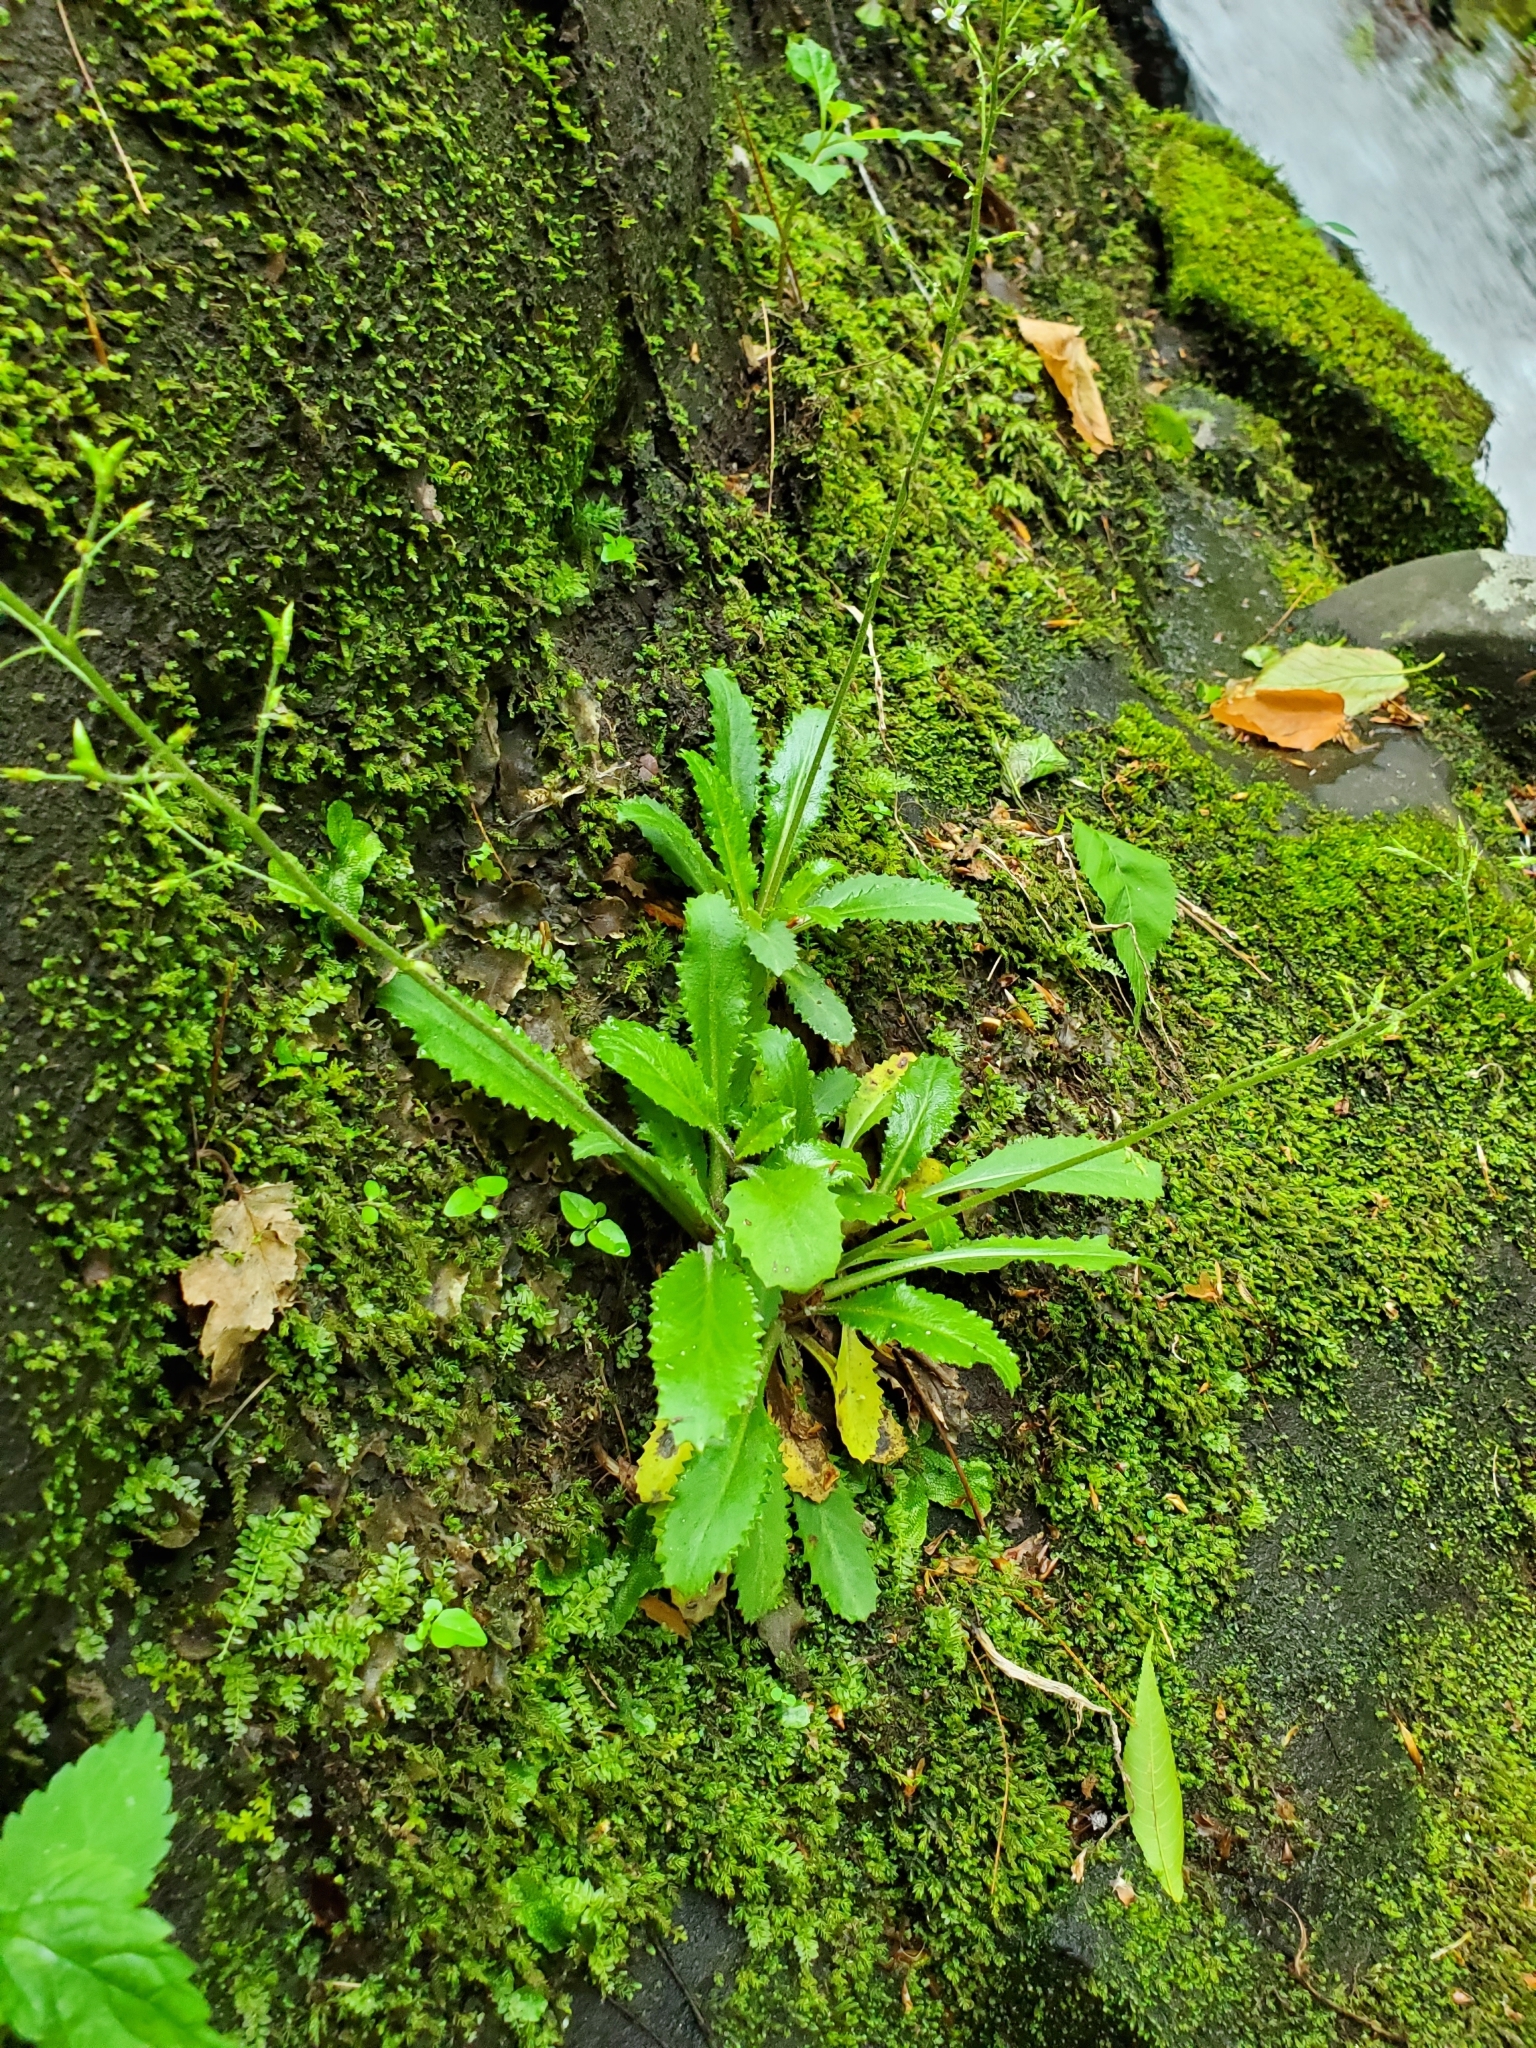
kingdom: Plantae
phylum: Tracheophyta
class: Magnoliopsida
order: Saxifragales
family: Saxifragaceae
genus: Micranthes
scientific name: Micranthes micranthidifolia
